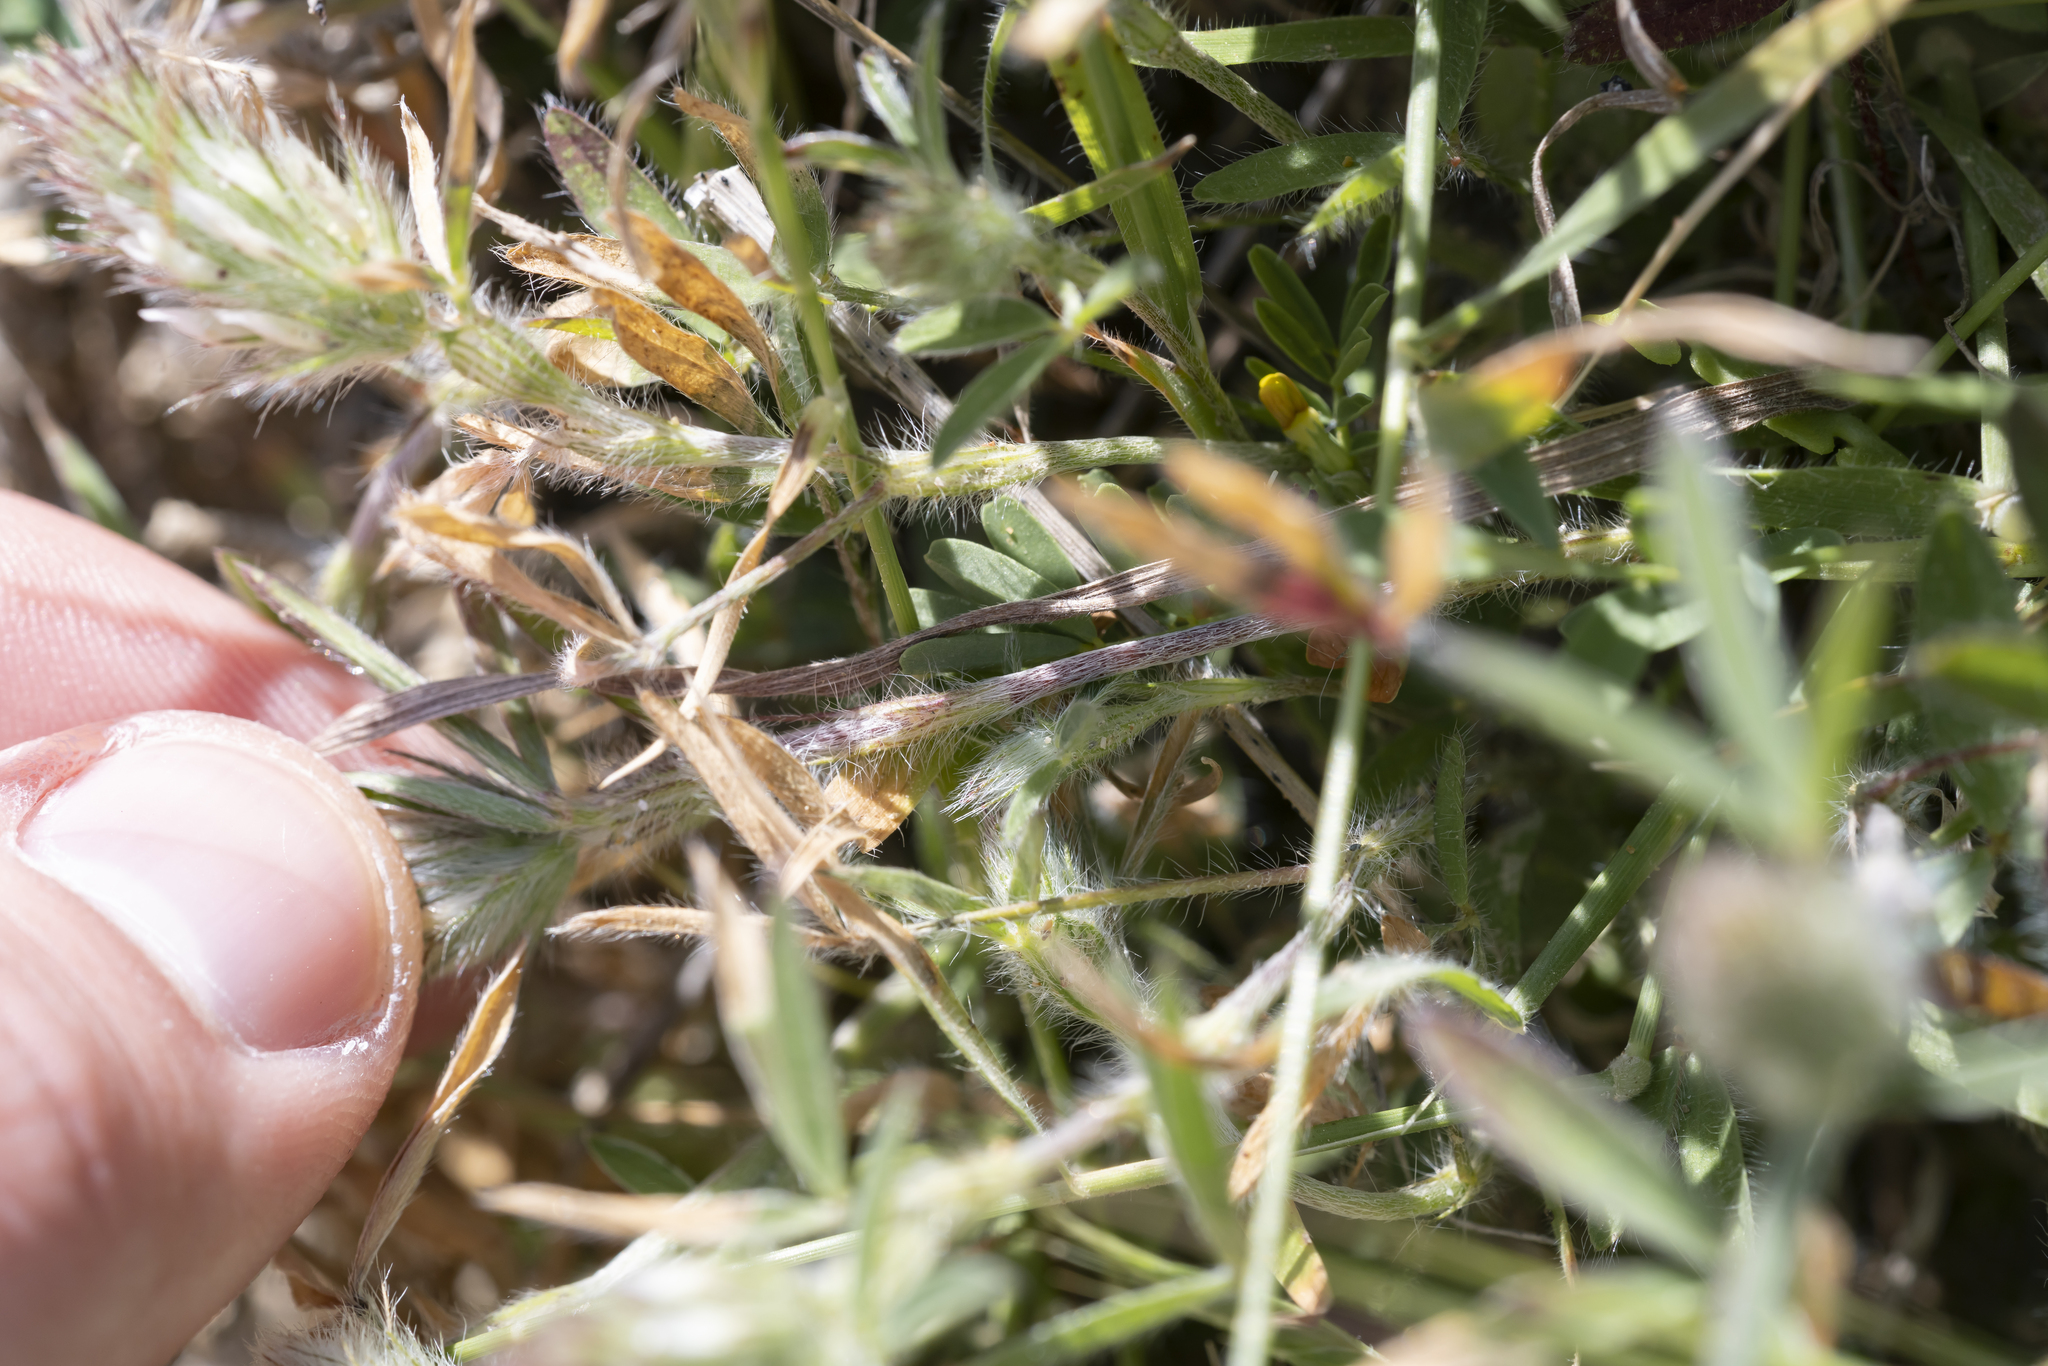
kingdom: Plantae
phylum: Tracheophyta
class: Magnoliopsida
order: Fabales
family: Fabaceae
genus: Trifolium
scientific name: Trifolium infamia-ponertii
